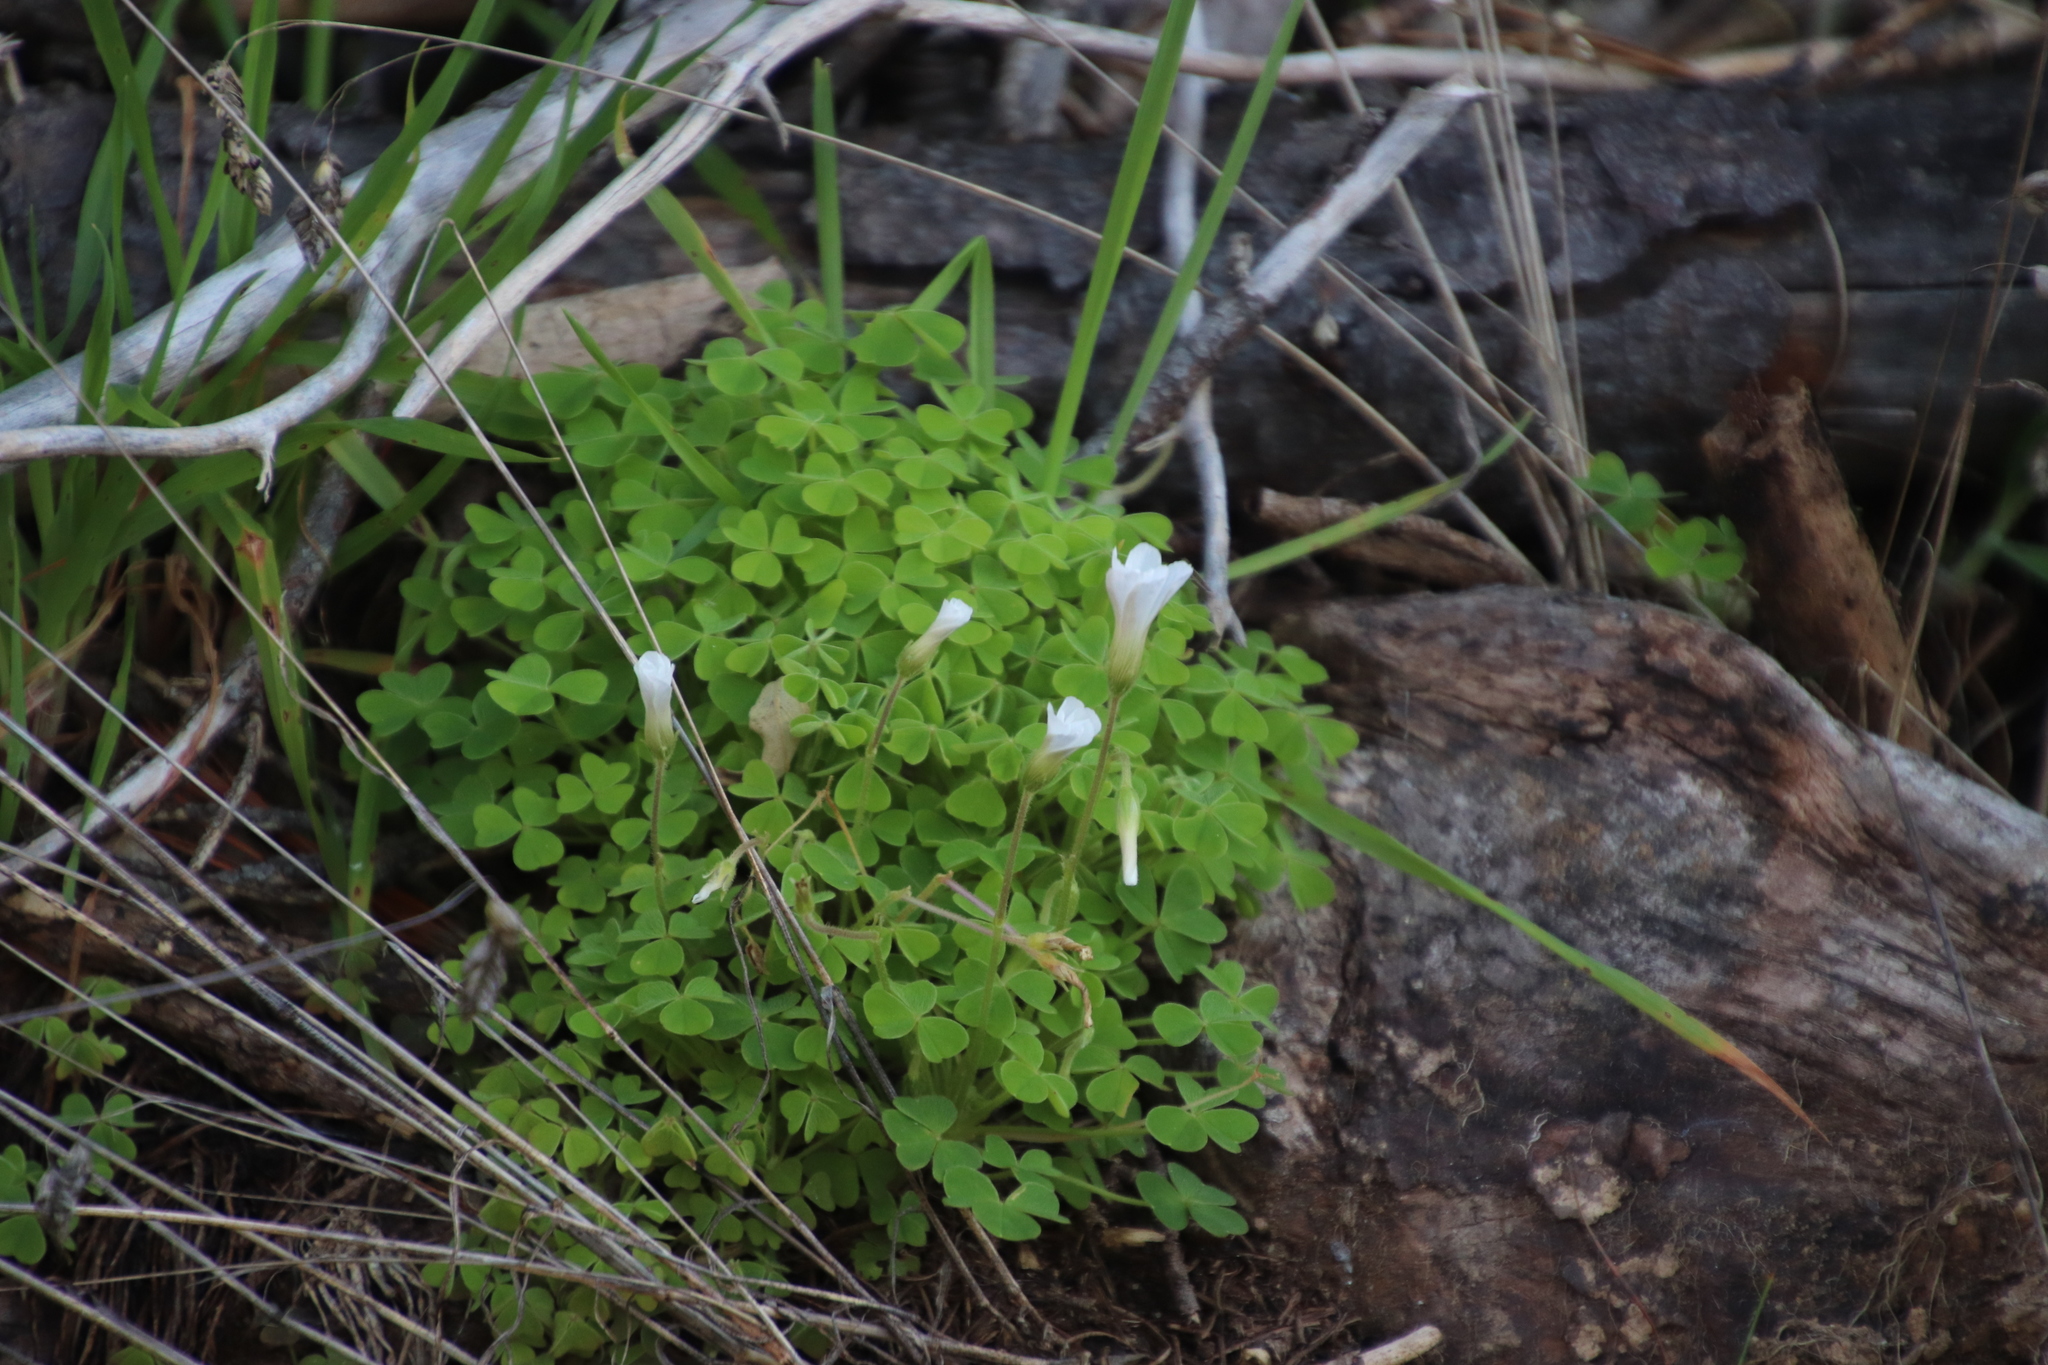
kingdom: Plantae
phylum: Tracheophyta
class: Magnoliopsida
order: Oxalidales
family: Oxalidaceae
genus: Oxalis
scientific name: Oxalis lanata
